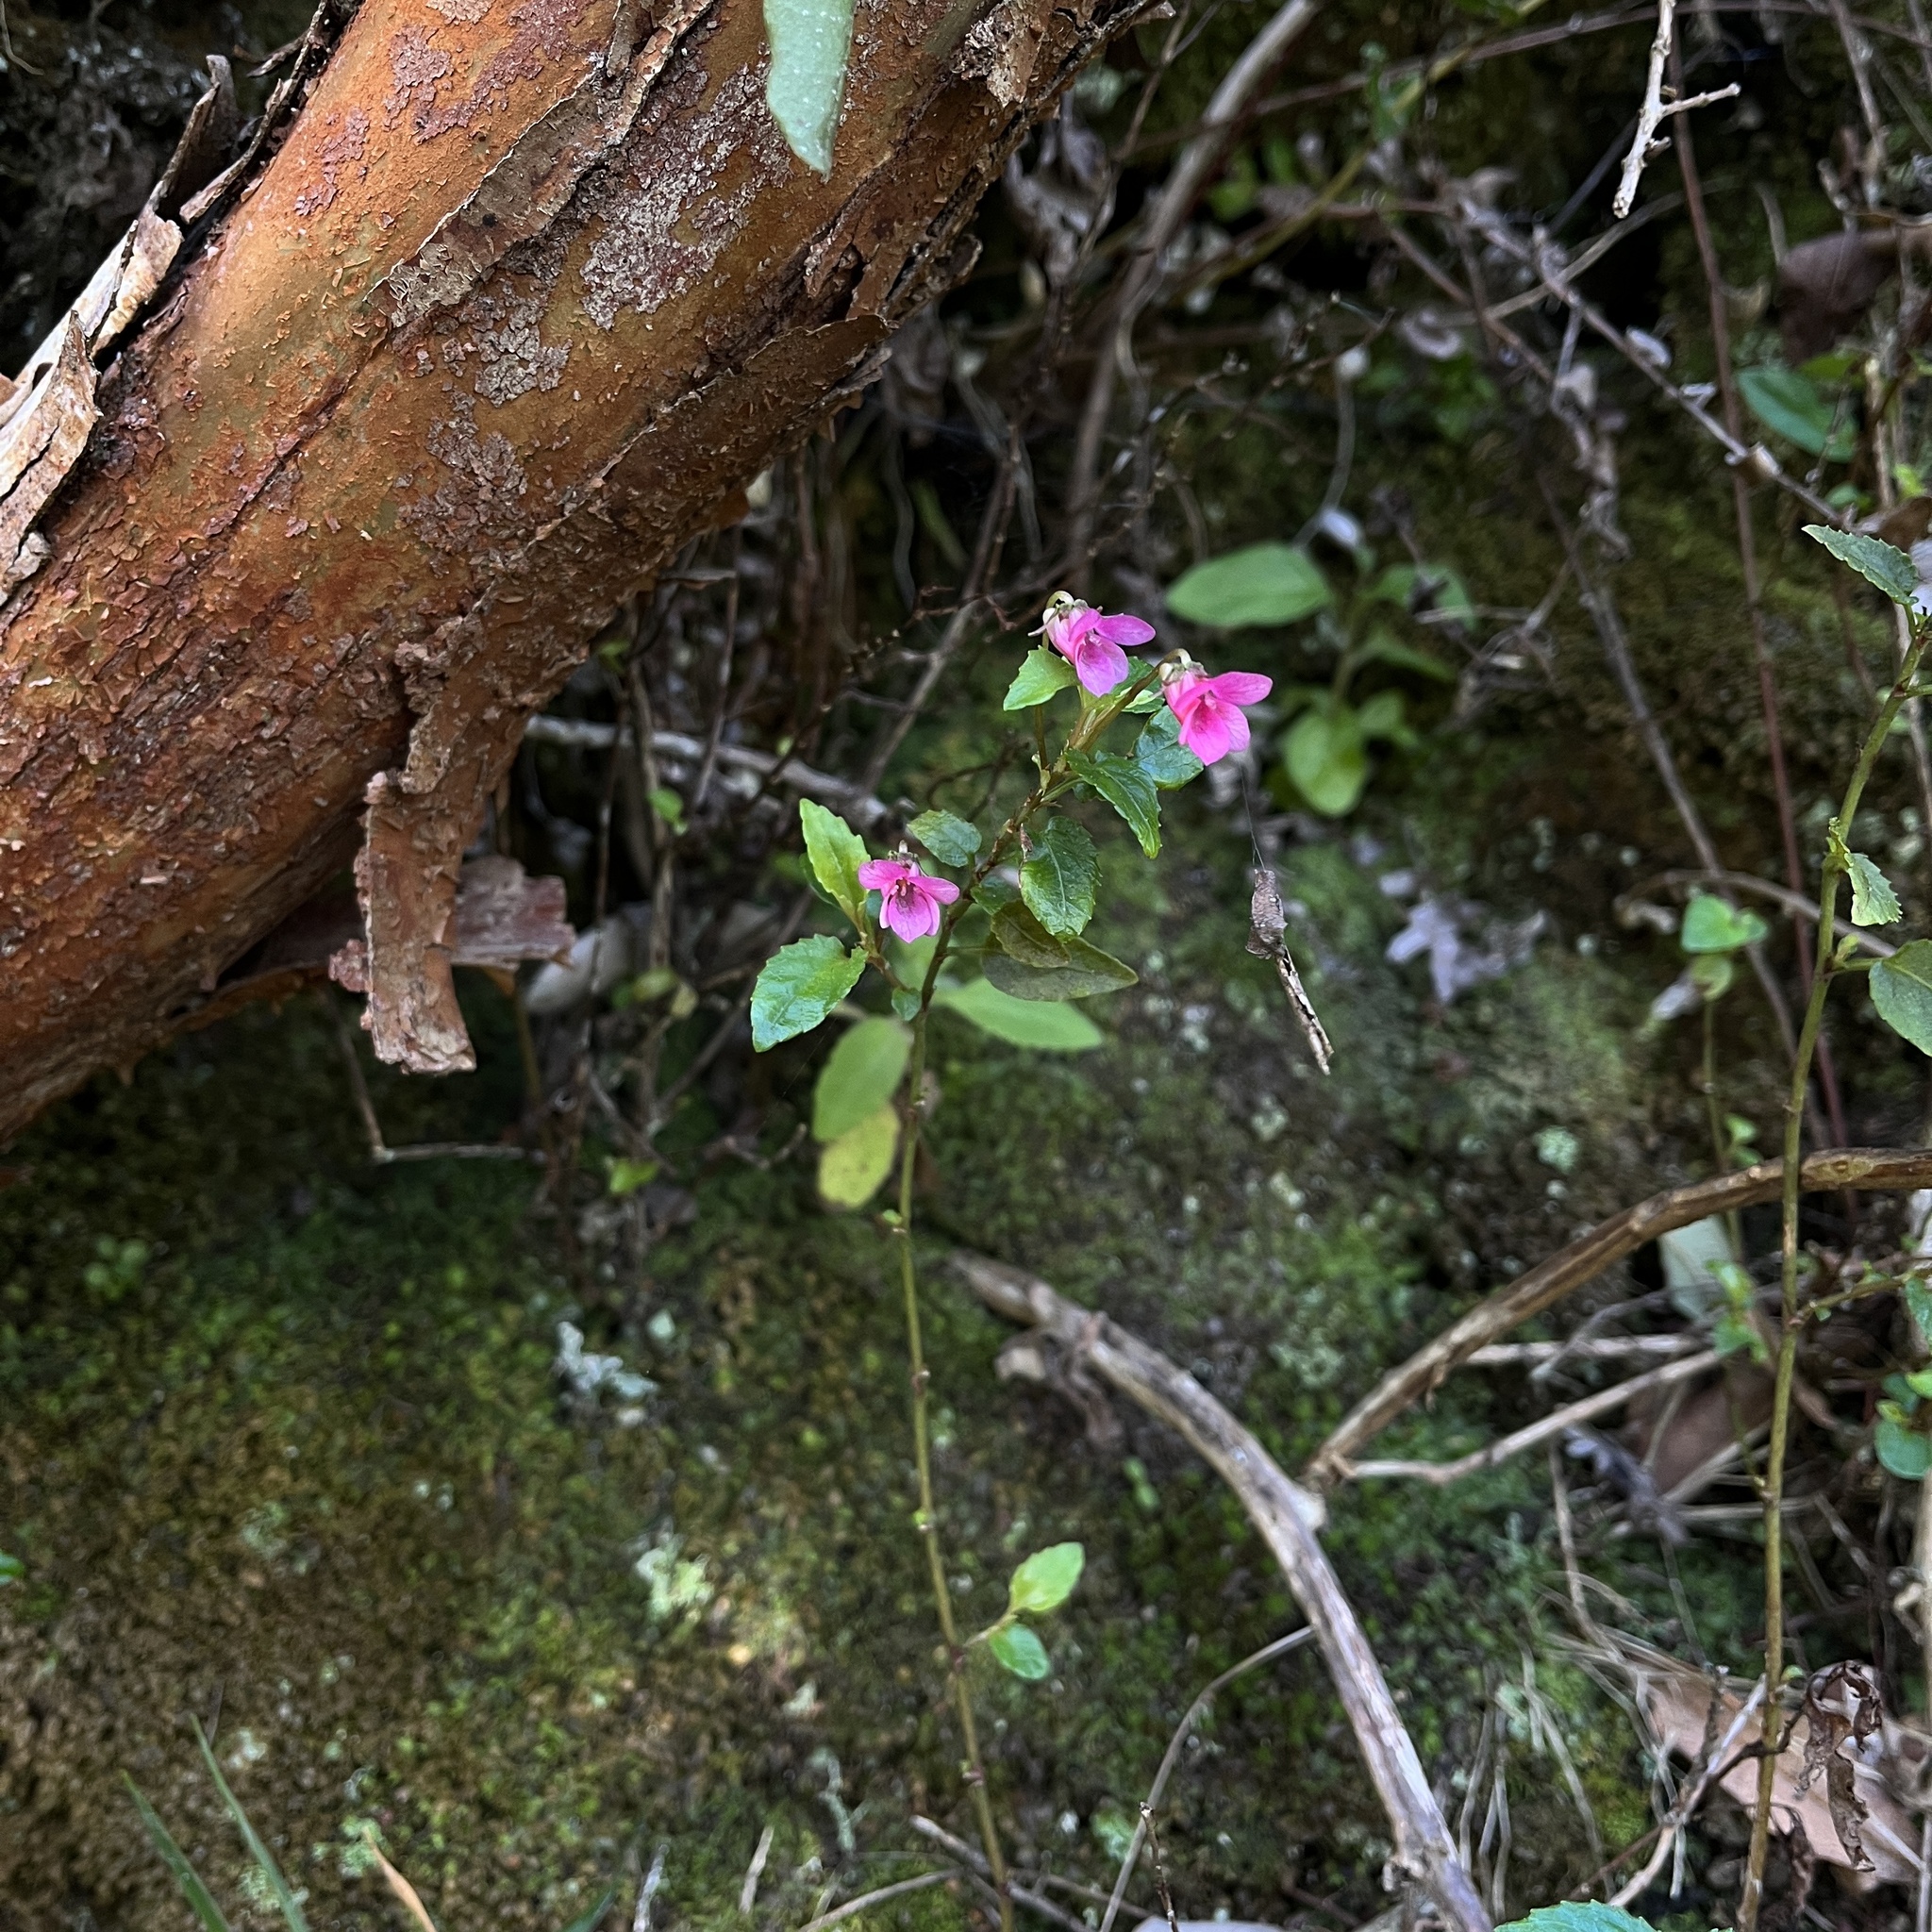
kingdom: Plantae
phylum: Tracheophyta
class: Magnoliopsida
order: Malpighiales
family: Violaceae
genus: Viola
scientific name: Viola rubella
